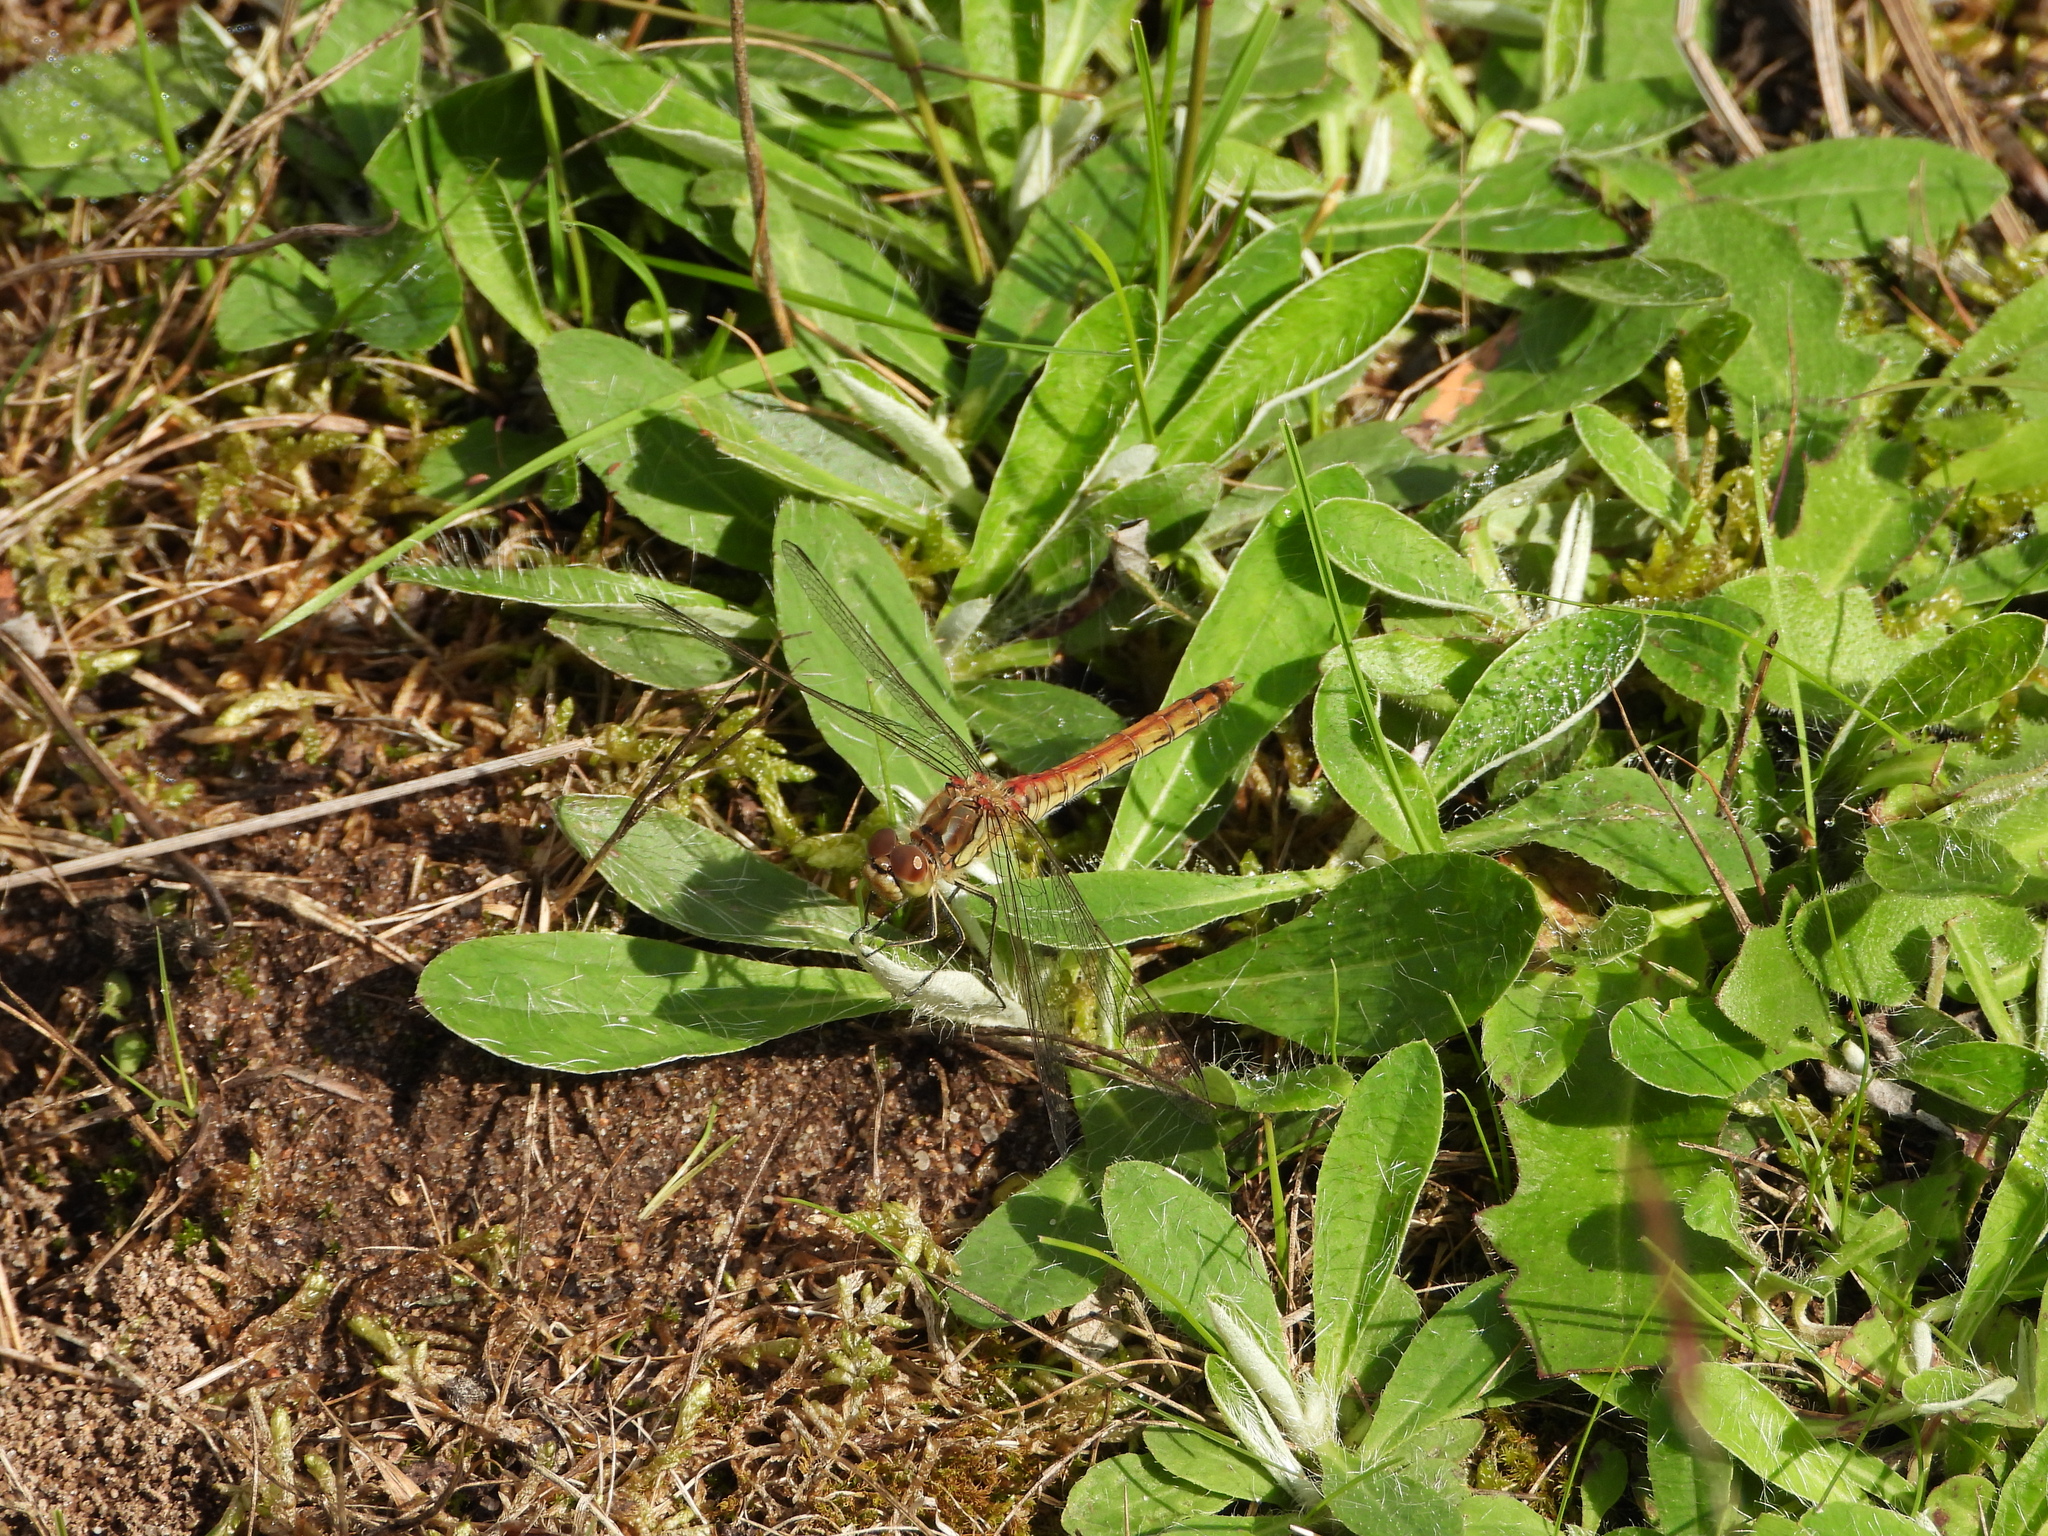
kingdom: Animalia
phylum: Arthropoda
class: Insecta
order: Odonata
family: Libellulidae
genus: Sympetrum
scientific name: Sympetrum vulgatum
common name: Vagrant darter
